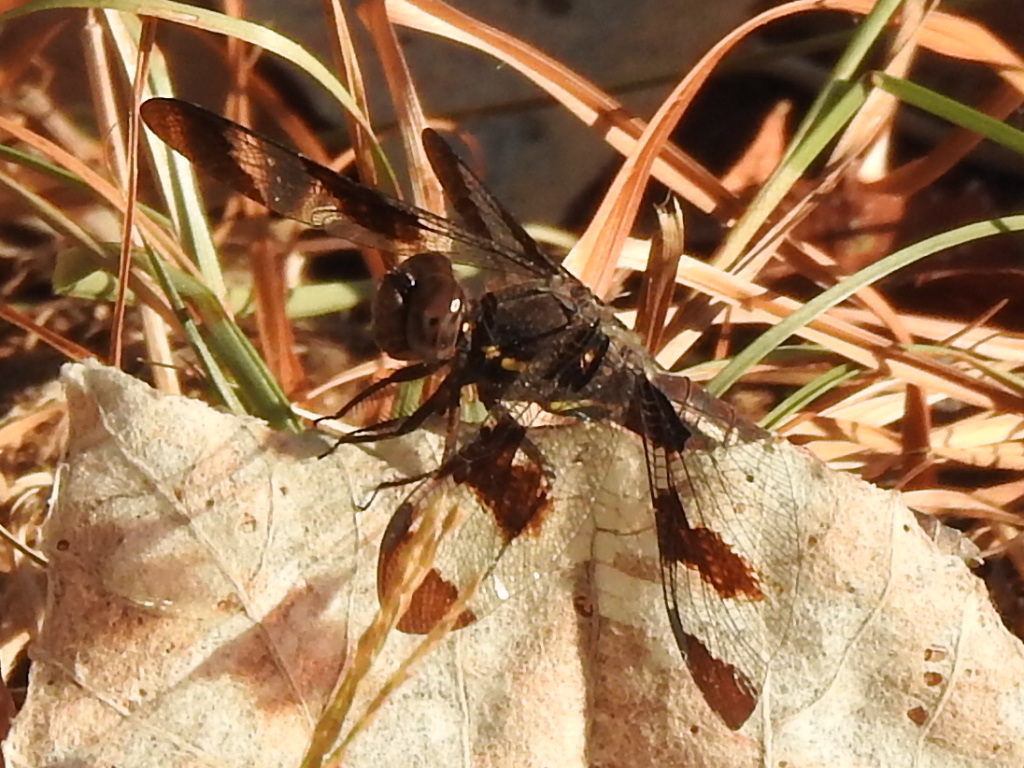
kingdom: Animalia
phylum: Arthropoda
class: Insecta
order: Odonata
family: Libellulidae
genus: Plathemis
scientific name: Plathemis lydia
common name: Common whitetail
